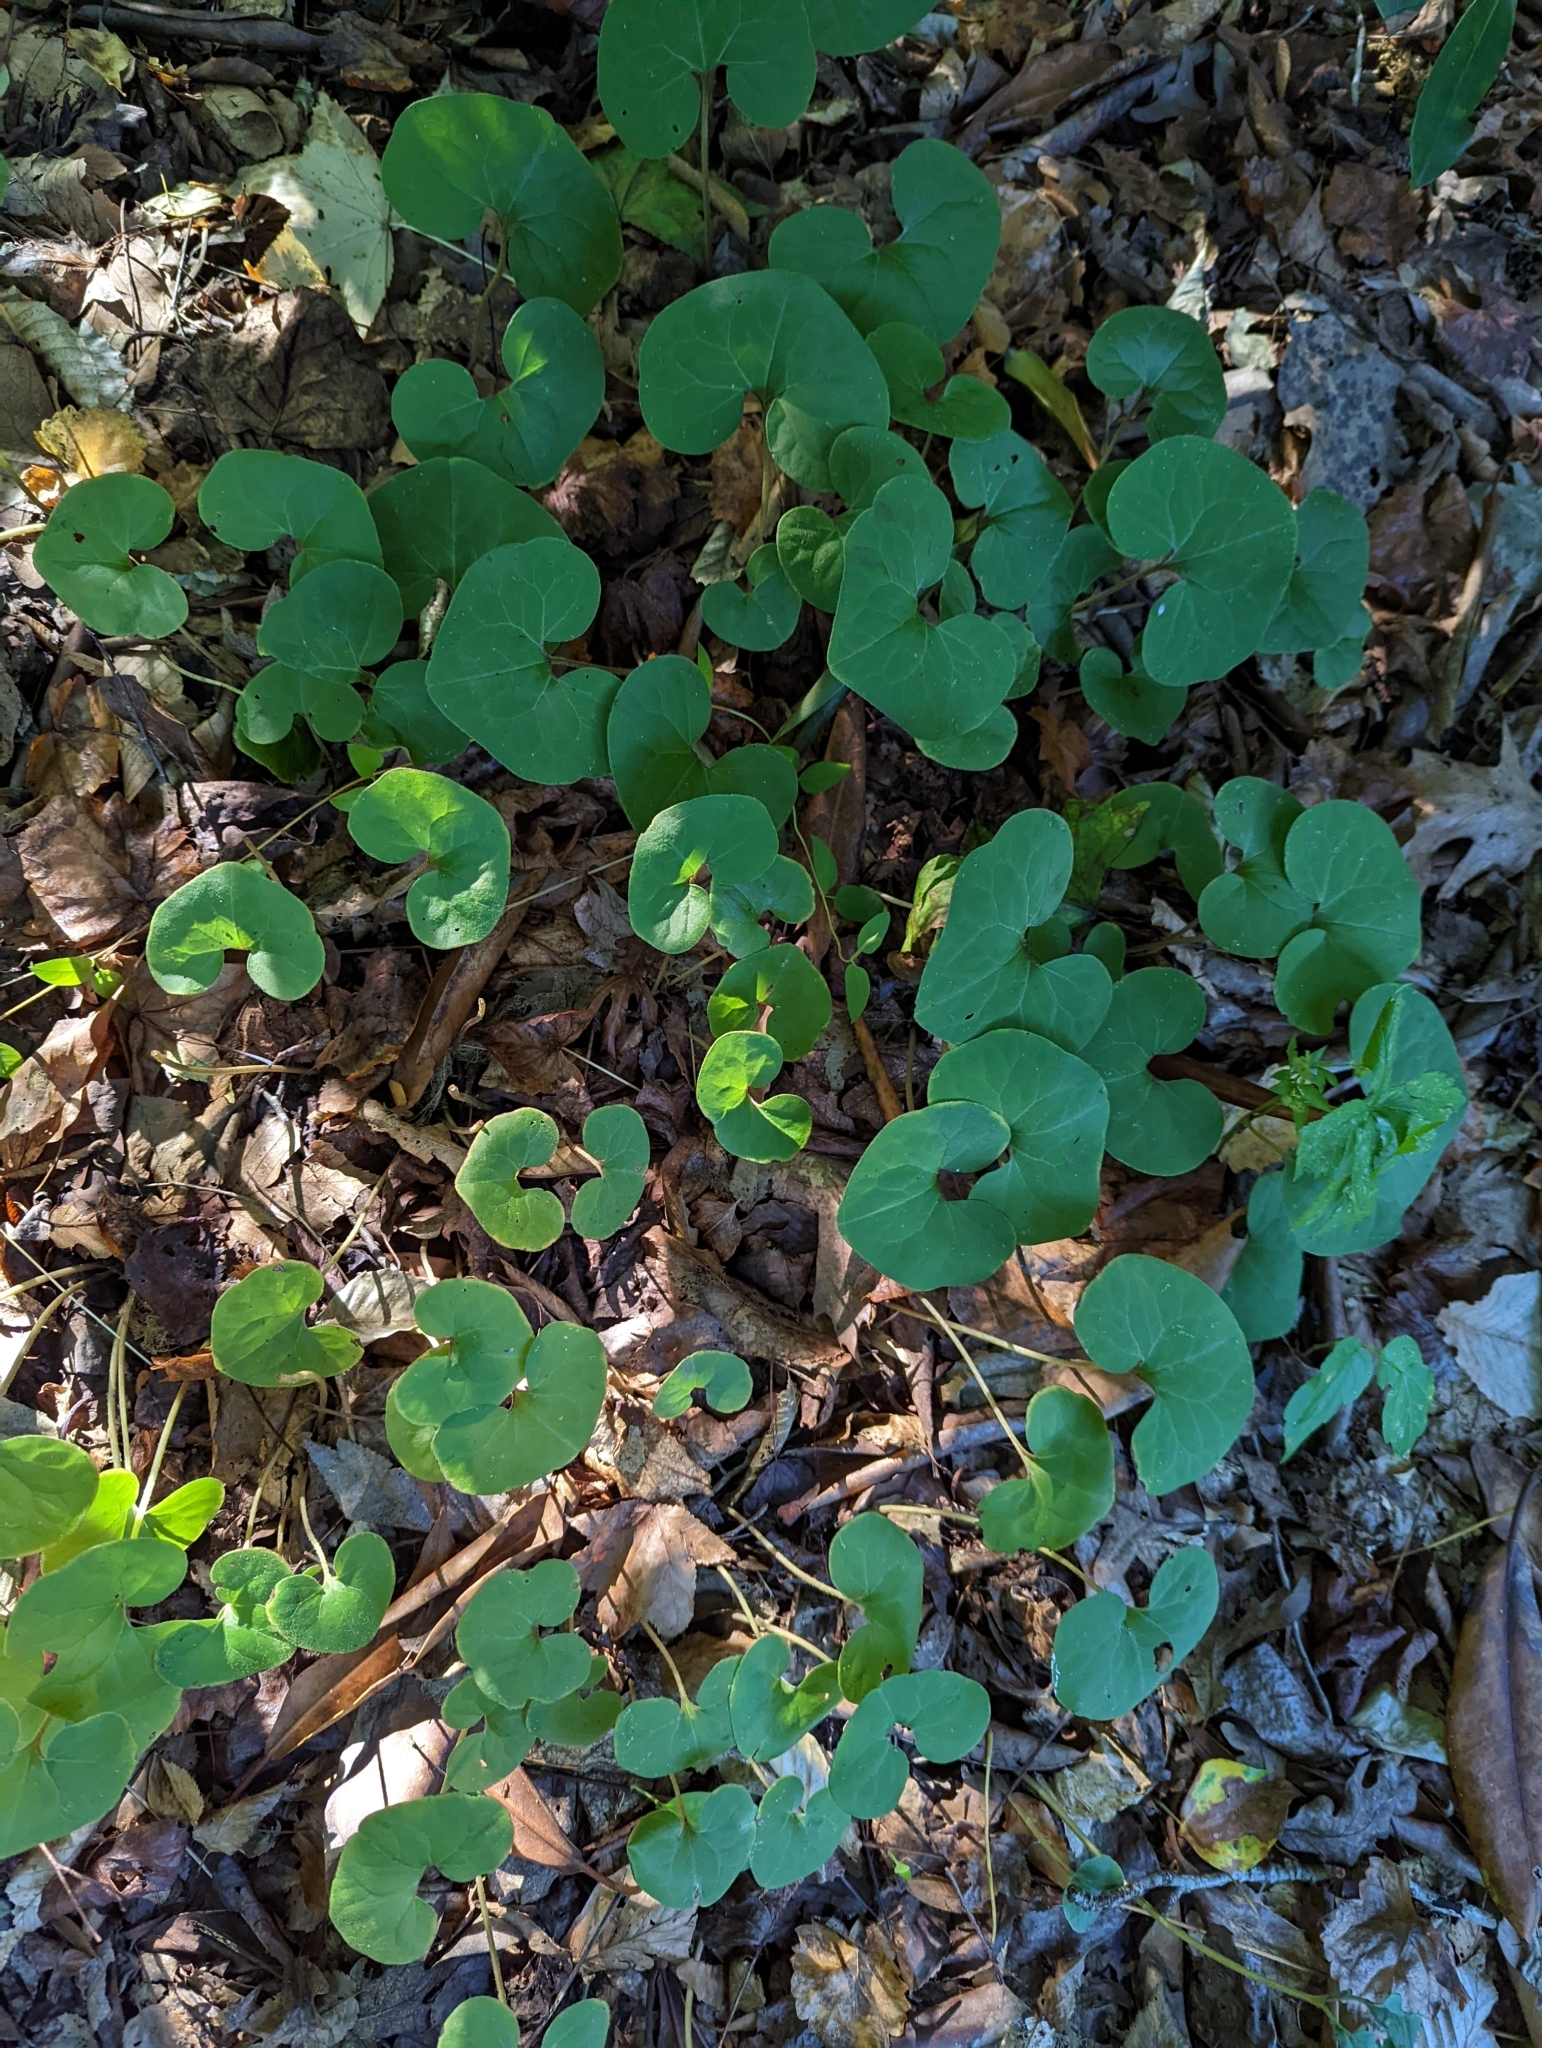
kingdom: Plantae
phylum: Tracheophyta
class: Magnoliopsida
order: Piperales
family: Aristolochiaceae
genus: Asarum
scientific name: Asarum canadense
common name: Wild ginger
